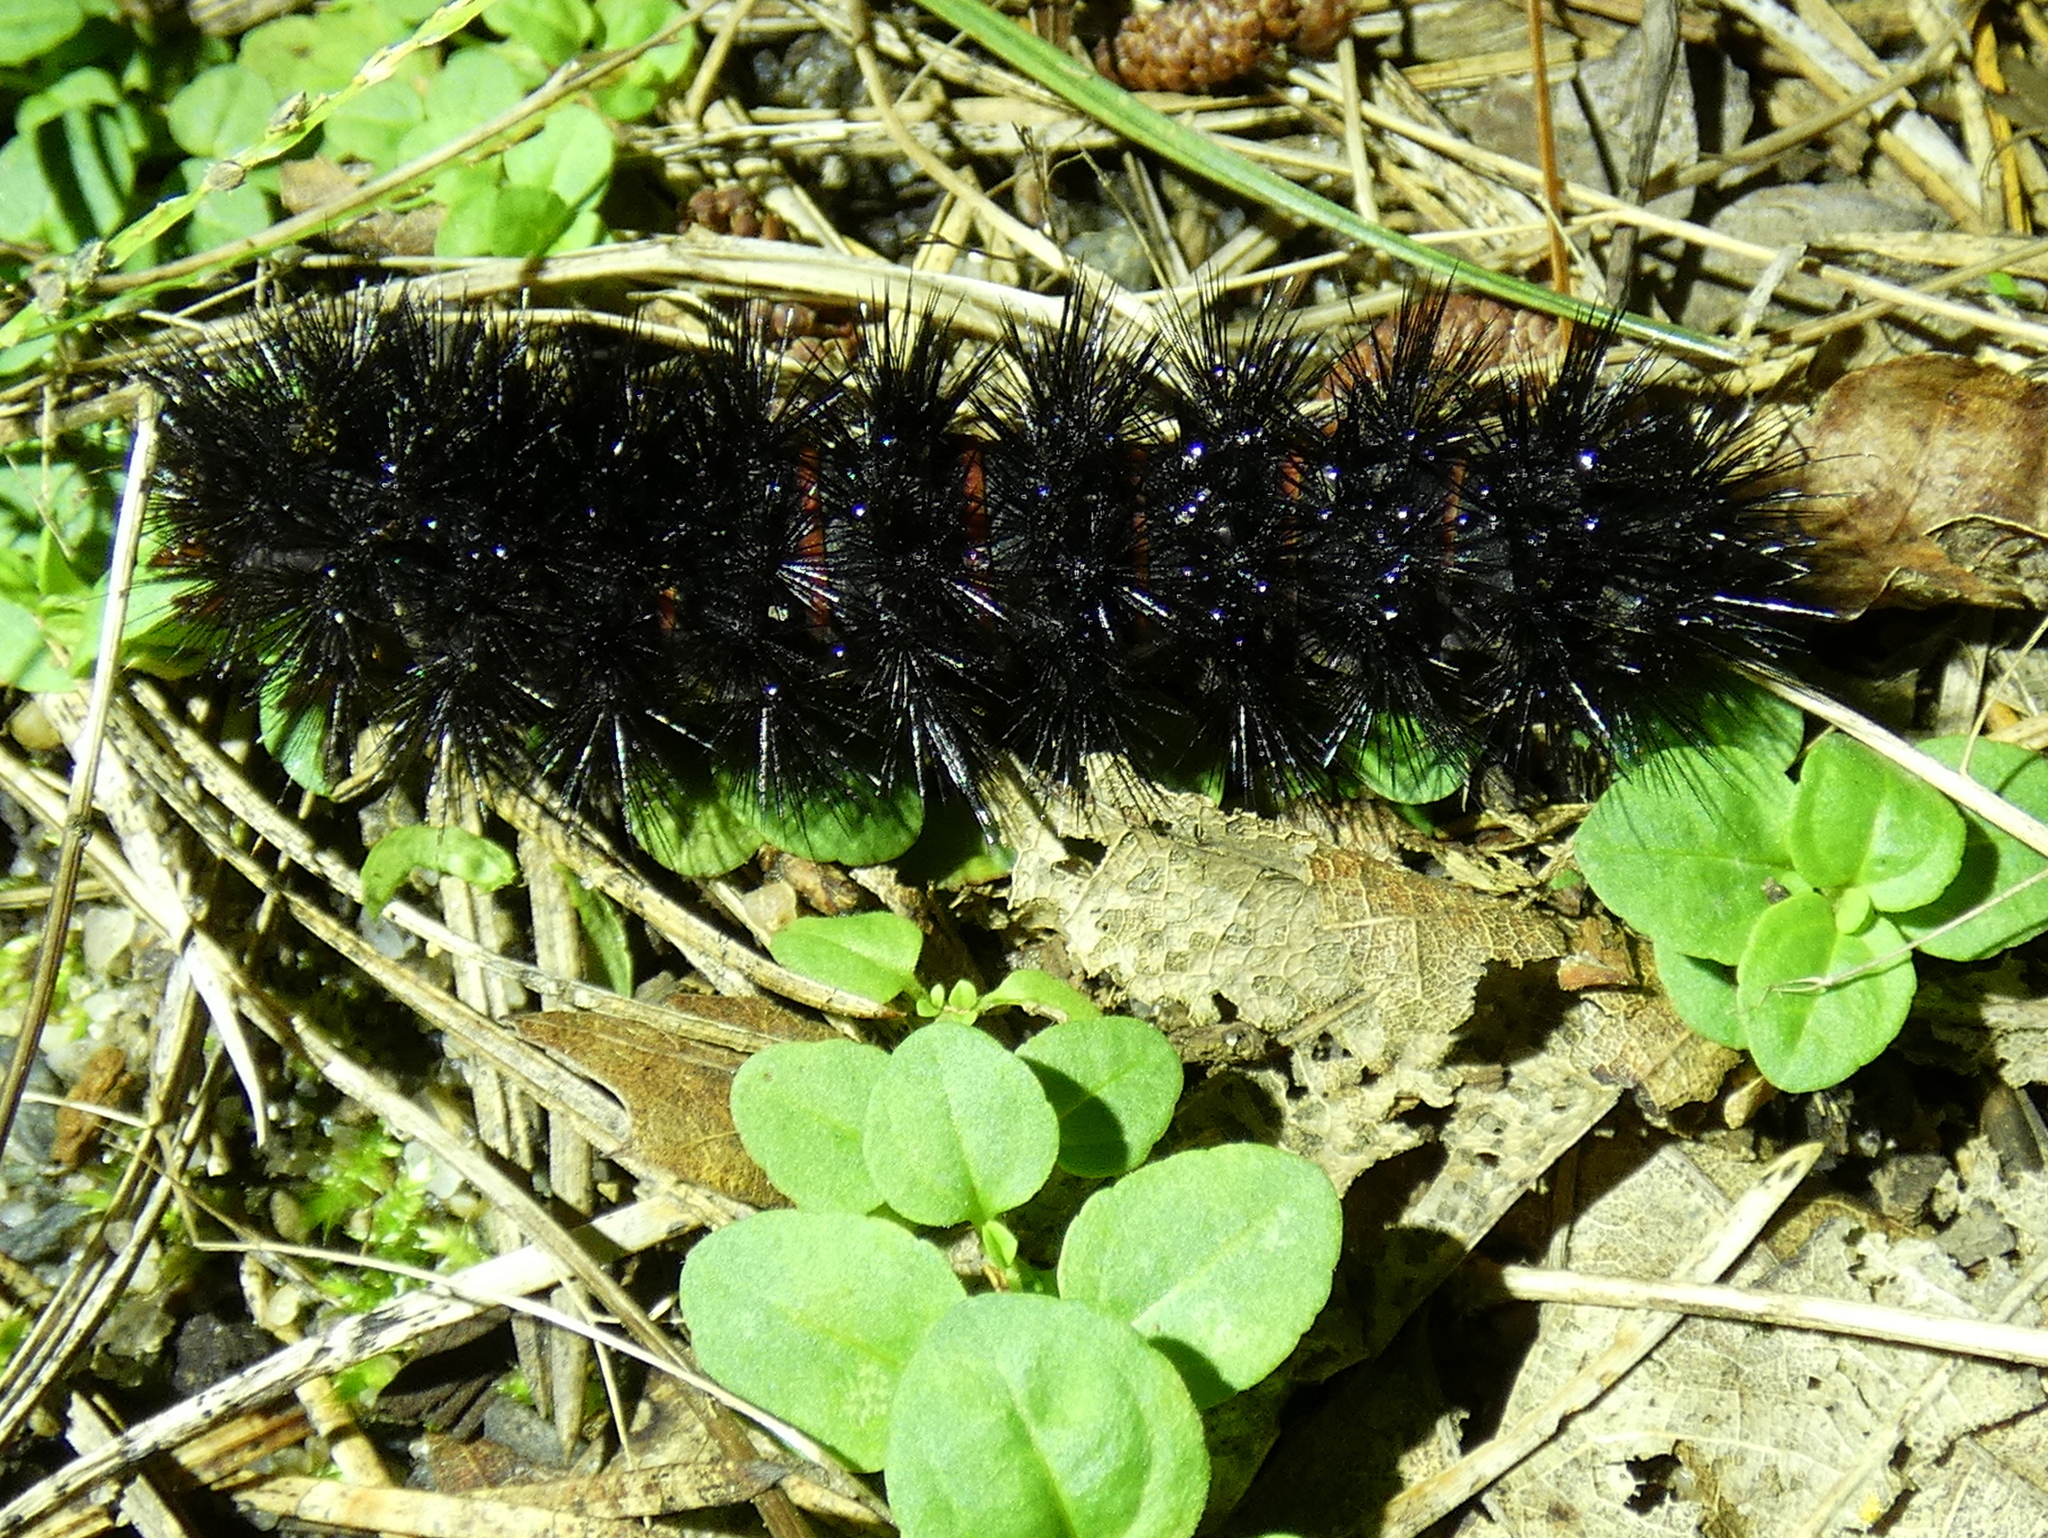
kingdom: Animalia
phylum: Arthropoda
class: Insecta
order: Lepidoptera
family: Erebidae
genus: Hypercompe
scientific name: Hypercompe scribonia
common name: Giant leopard moth
